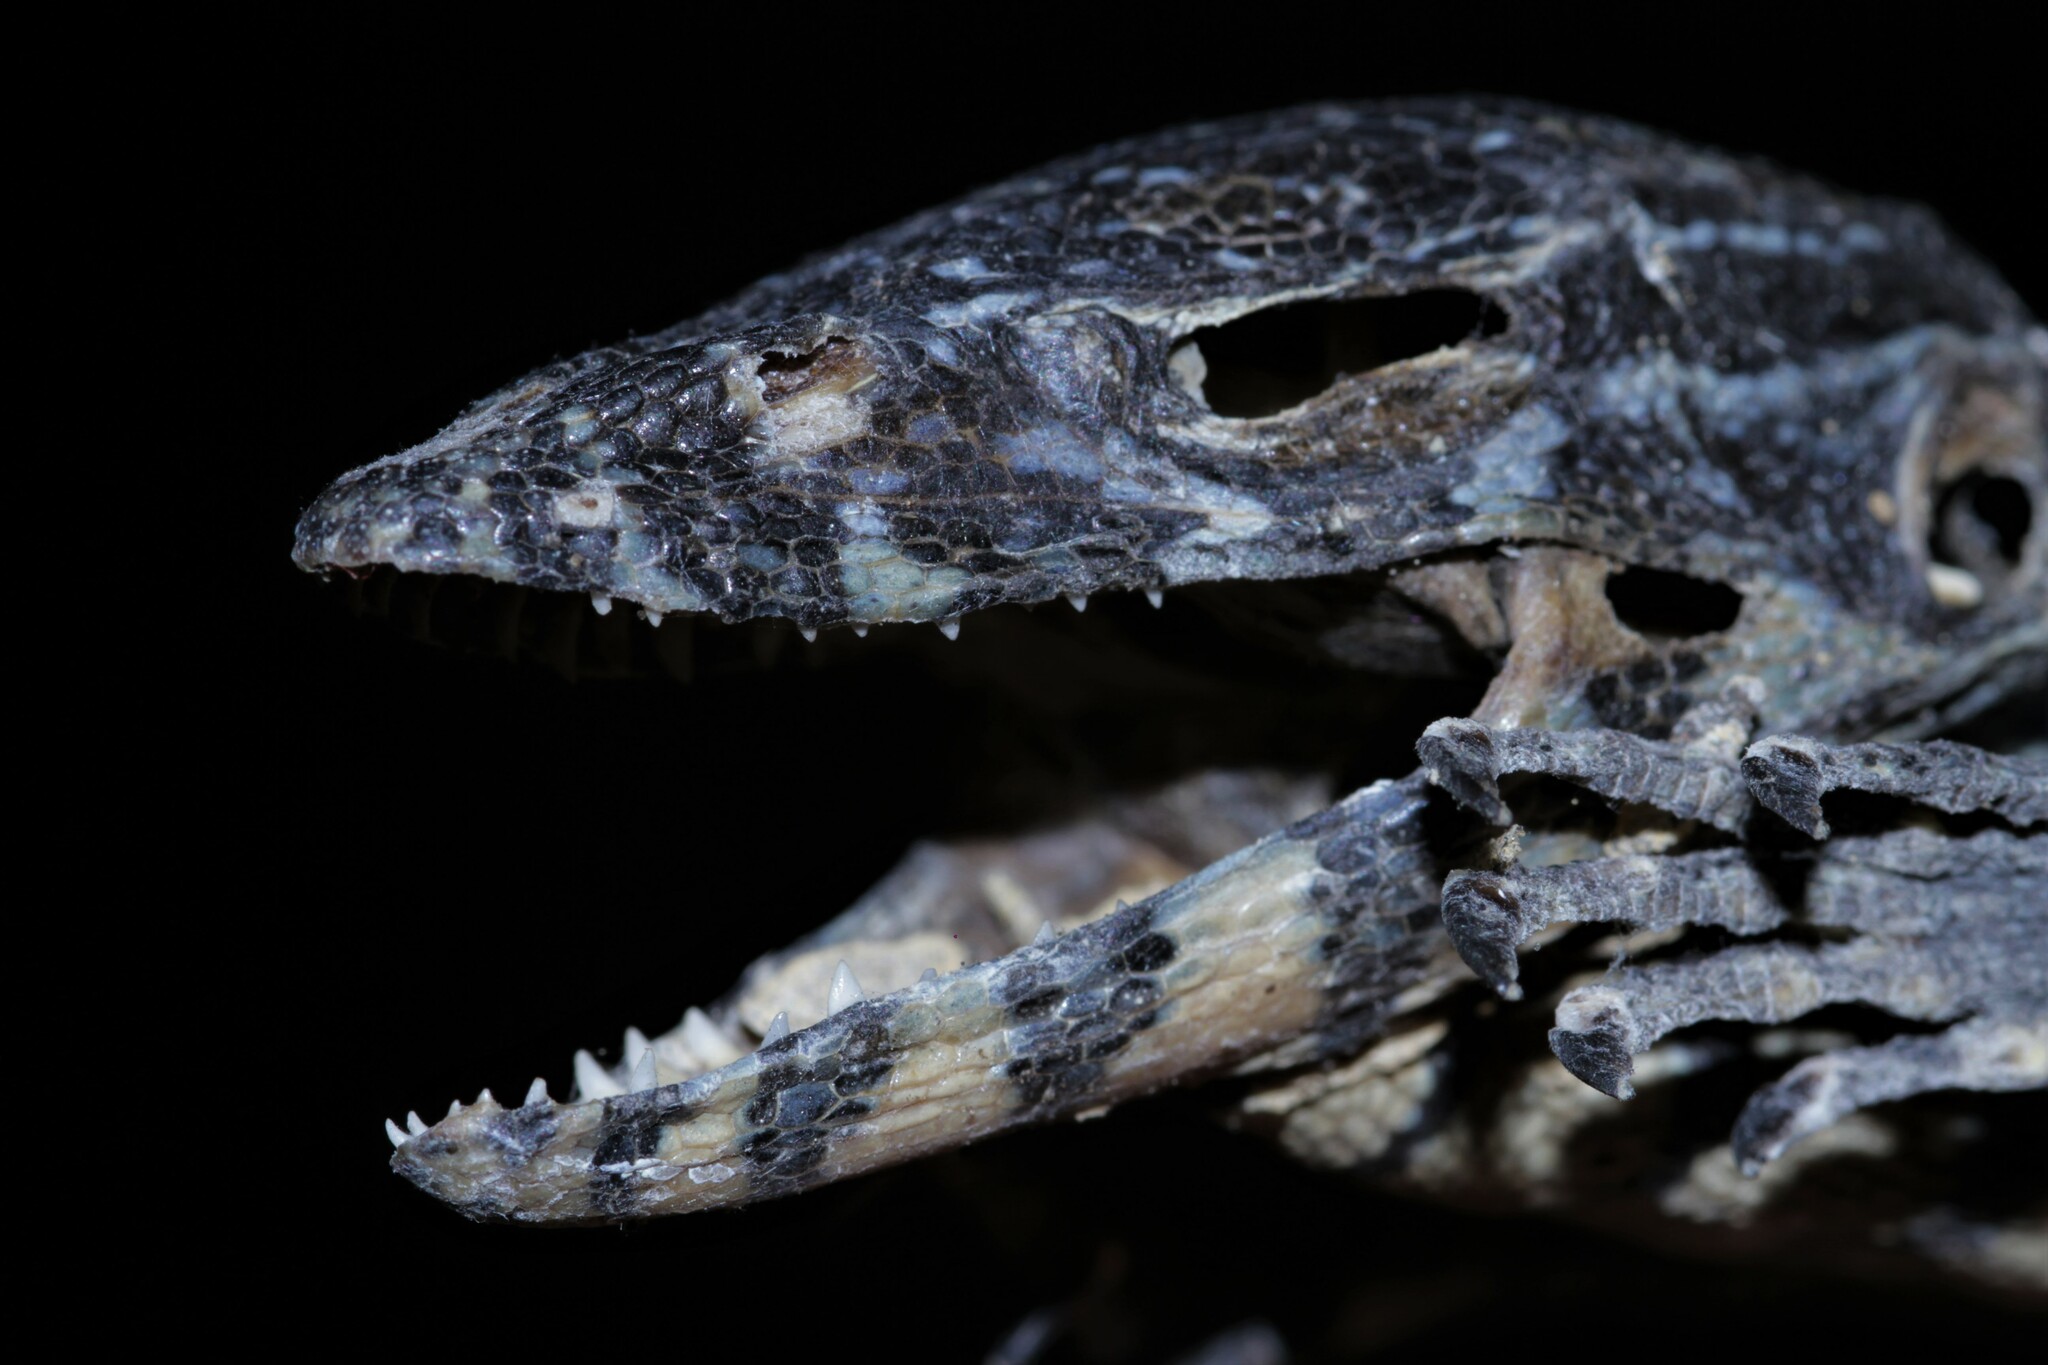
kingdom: Animalia
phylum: Chordata
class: Squamata
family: Varanidae
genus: Varanus
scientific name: Varanus niloticus
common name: Nile monitor
